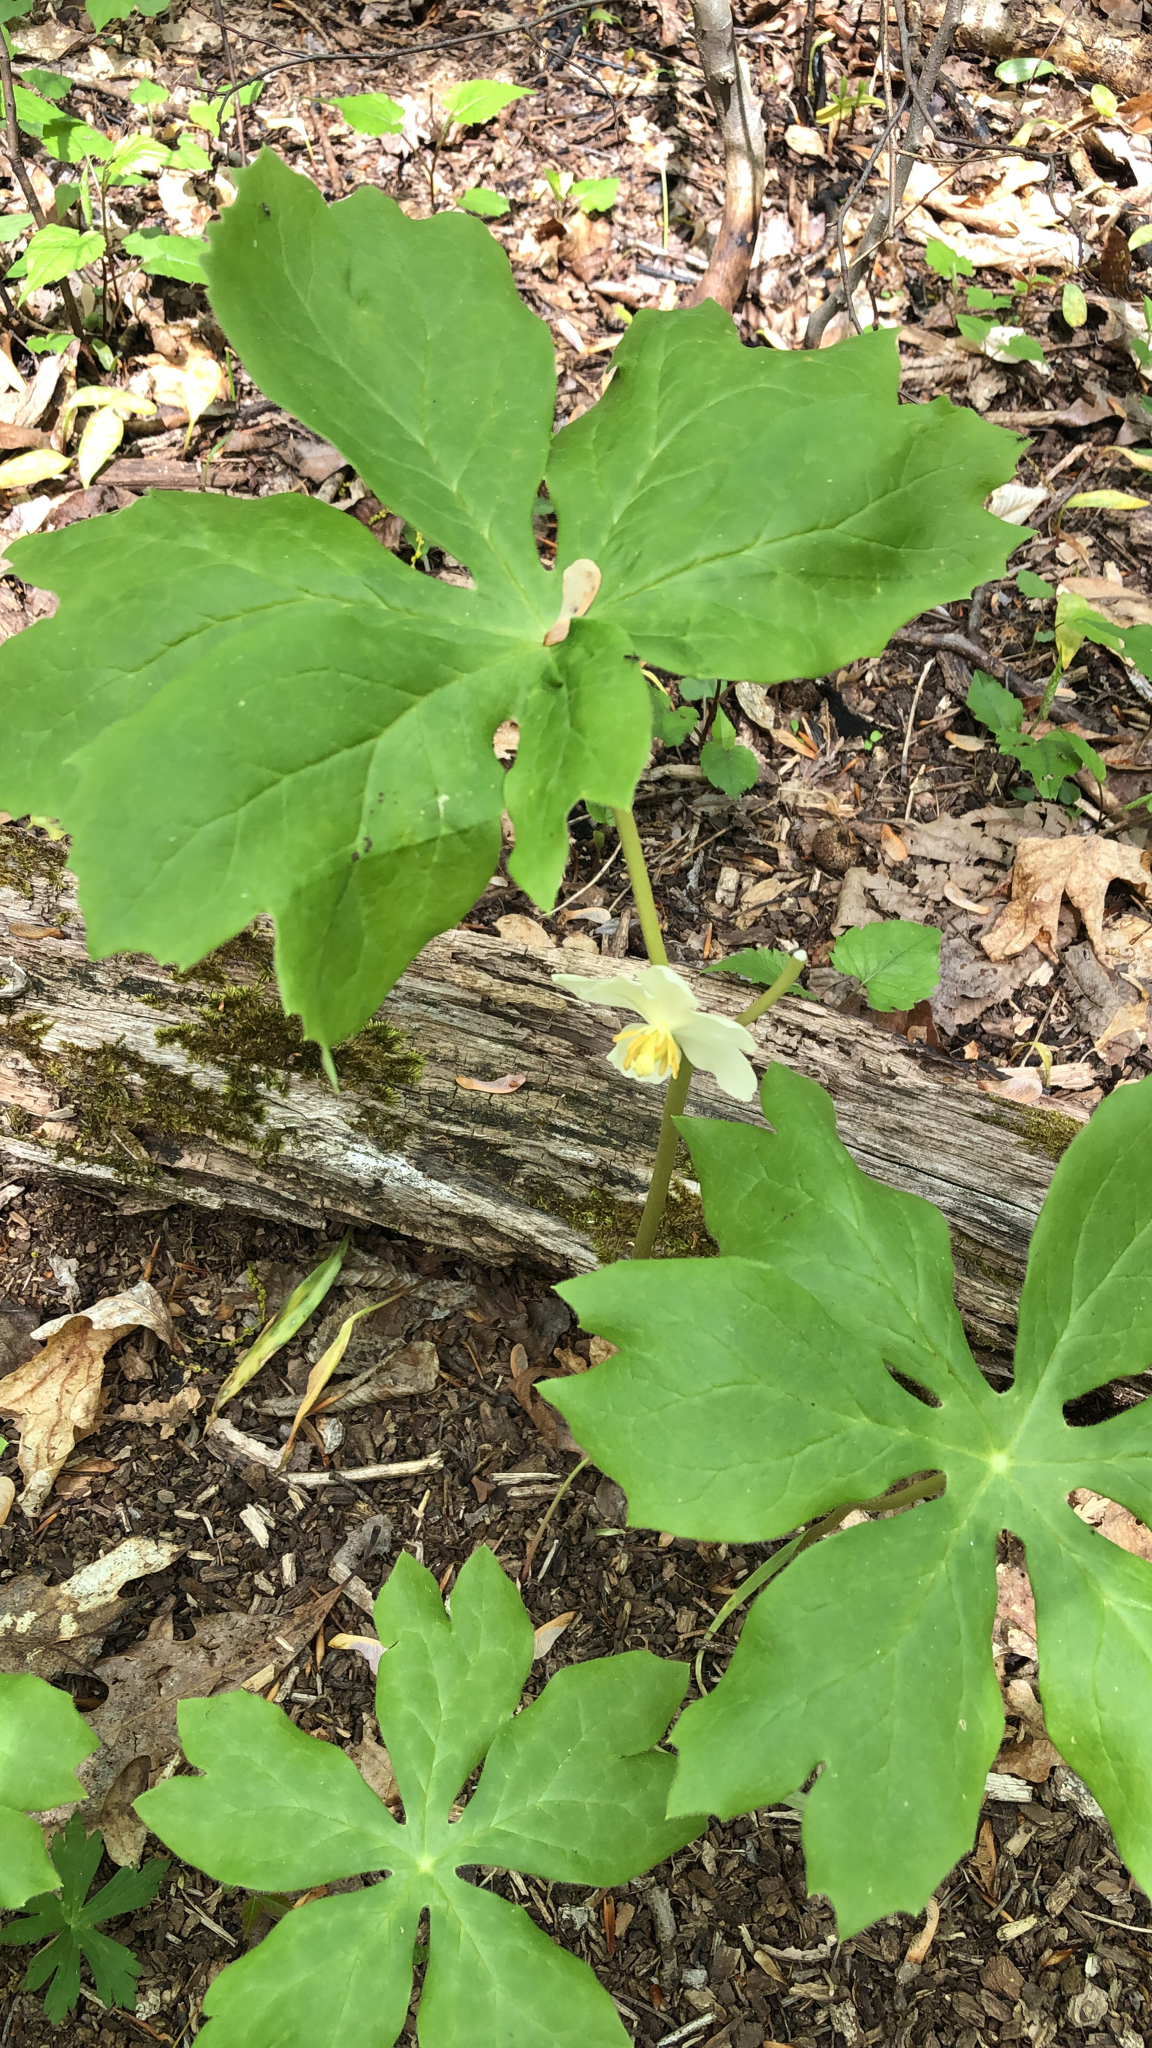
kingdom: Plantae
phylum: Tracheophyta
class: Magnoliopsida
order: Ranunculales
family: Berberidaceae
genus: Podophyllum
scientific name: Podophyllum peltatum
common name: Wild mandrake
